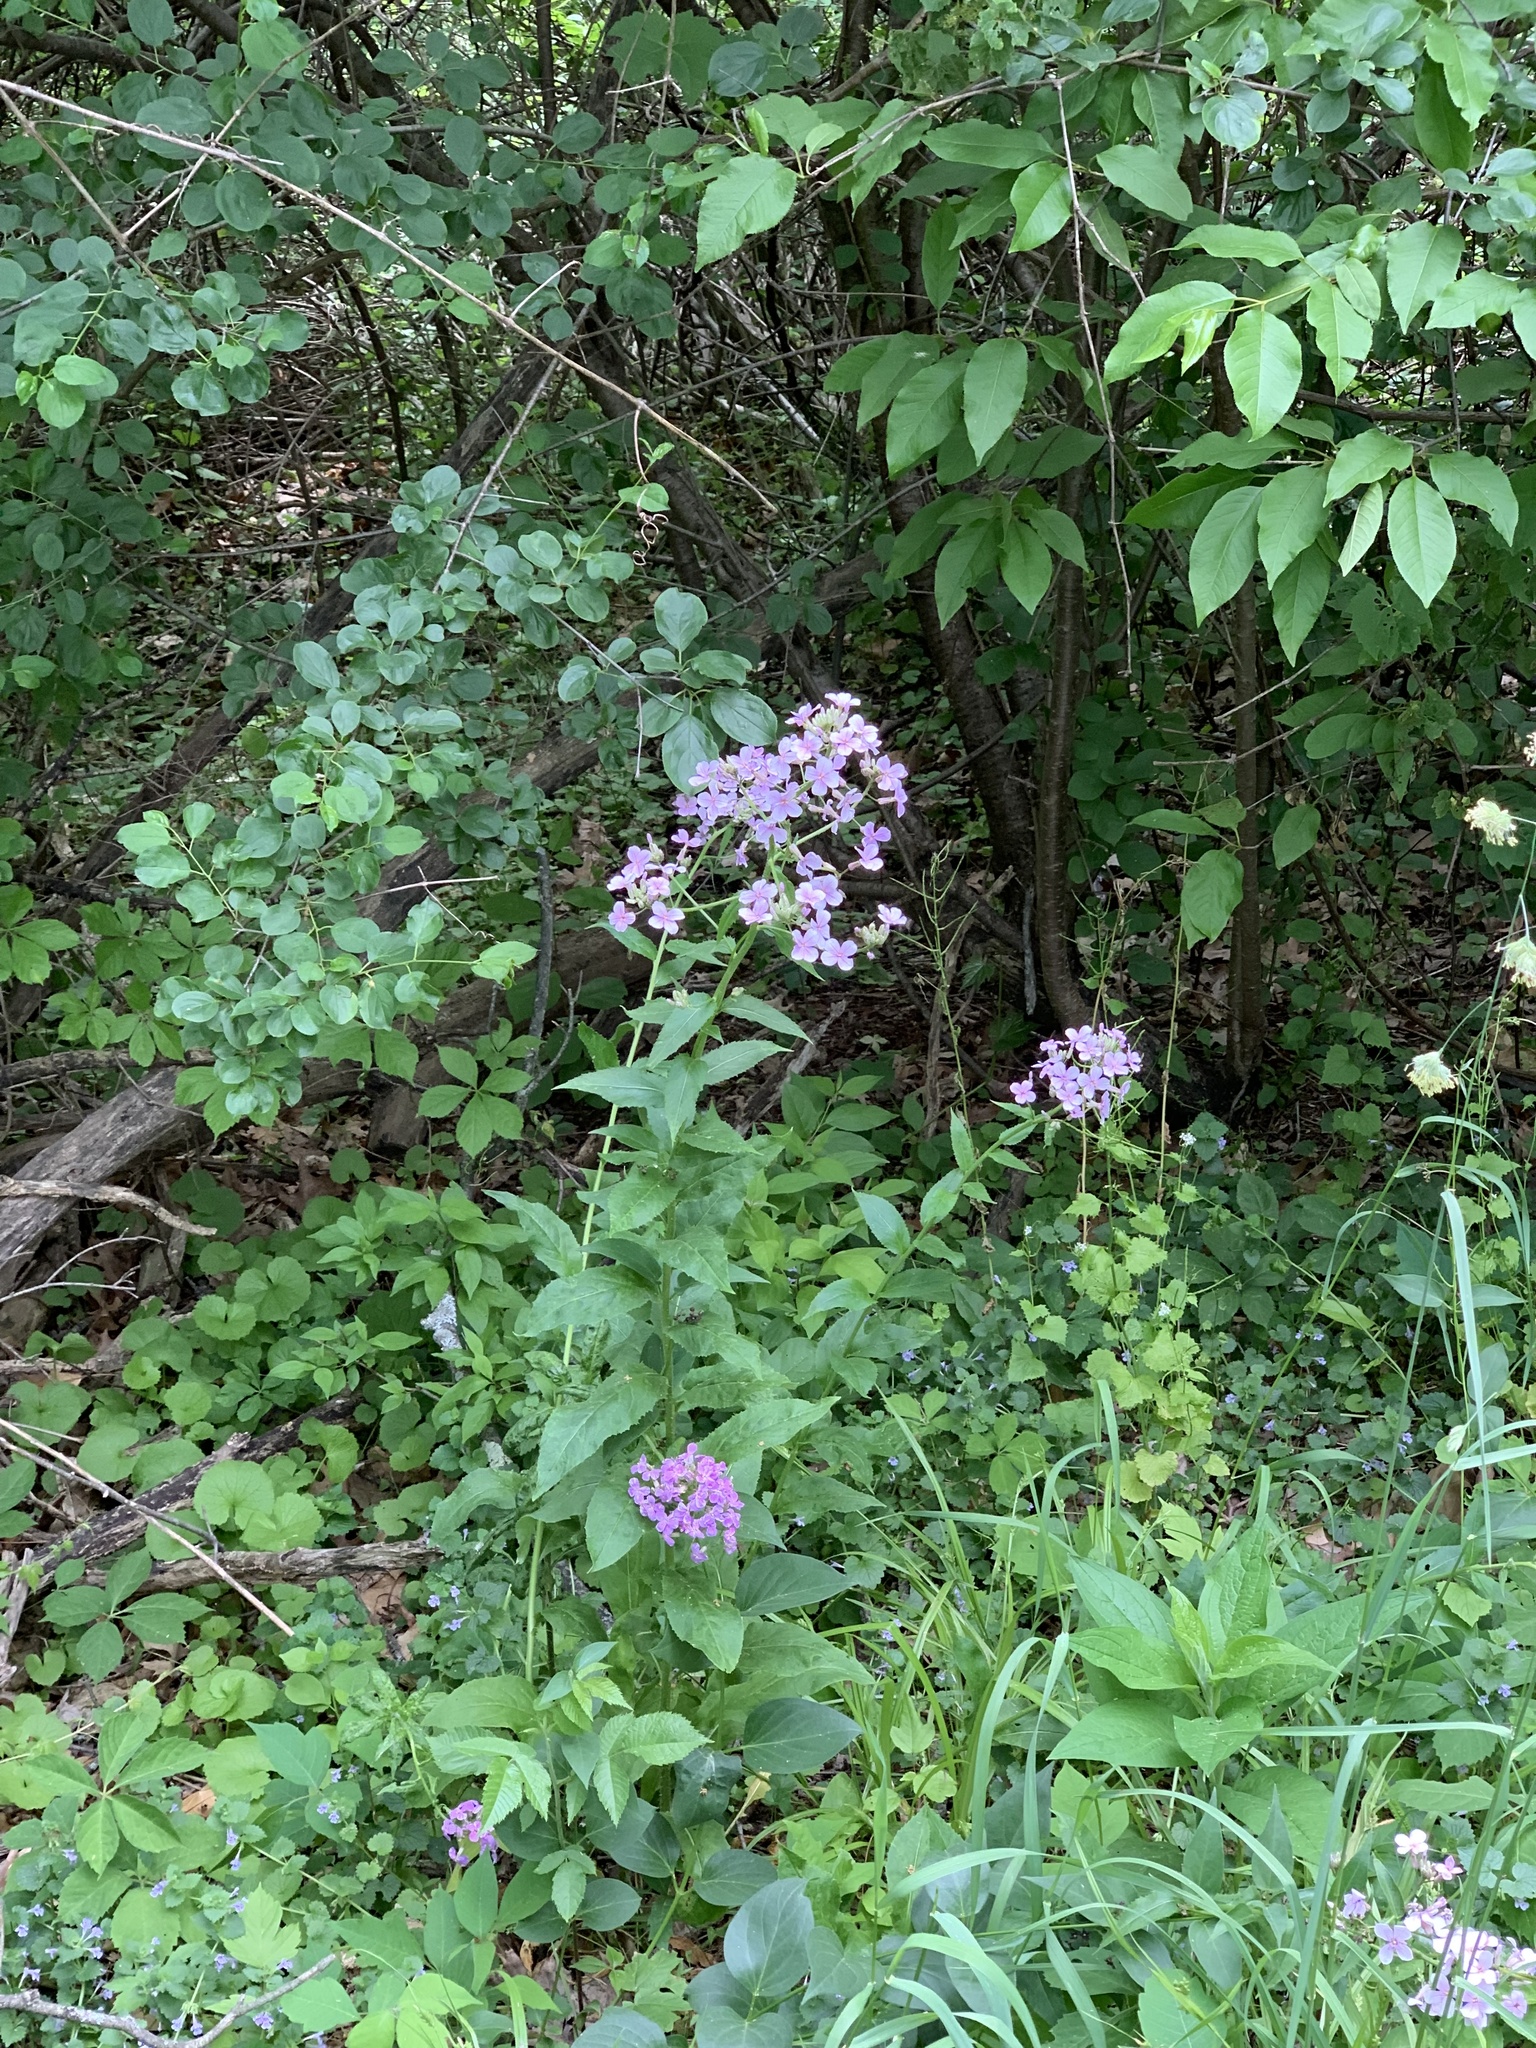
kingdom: Plantae
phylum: Tracheophyta
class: Magnoliopsida
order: Brassicales
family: Brassicaceae
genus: Hesperis
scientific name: Hesperis matronalis
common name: Dame's-violet
